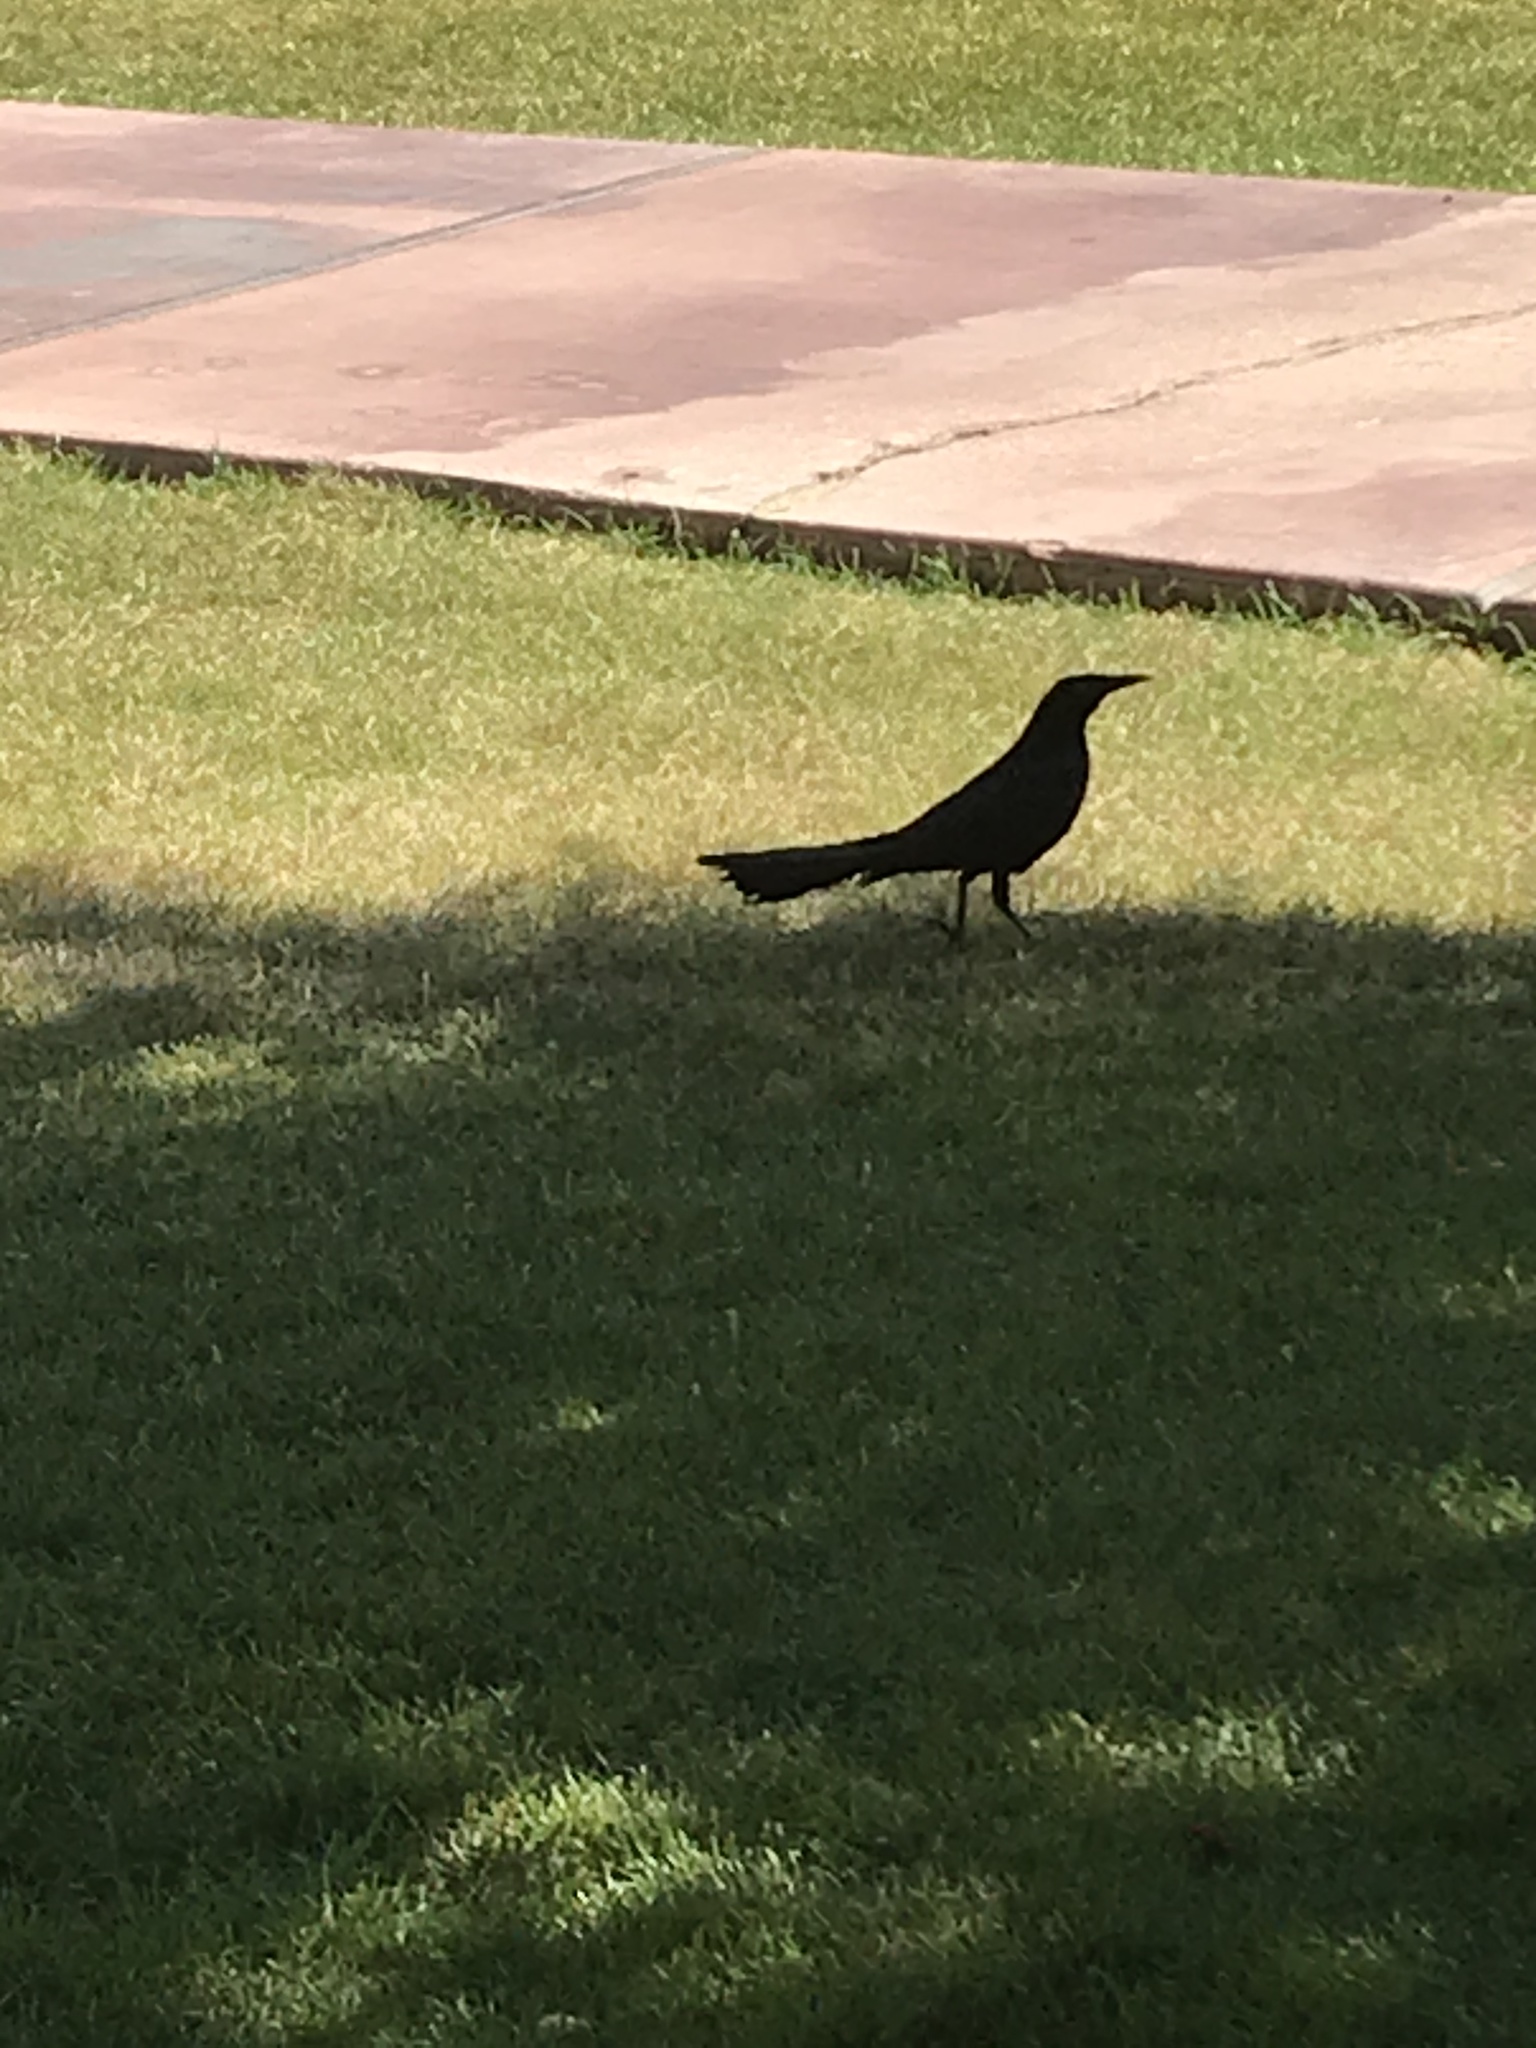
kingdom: Animalia
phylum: Chordata
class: Aves
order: Passeriformes
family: Icteridae
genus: Quiscalus
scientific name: Quiscalus mexicanus
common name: Great-tailed grackle
